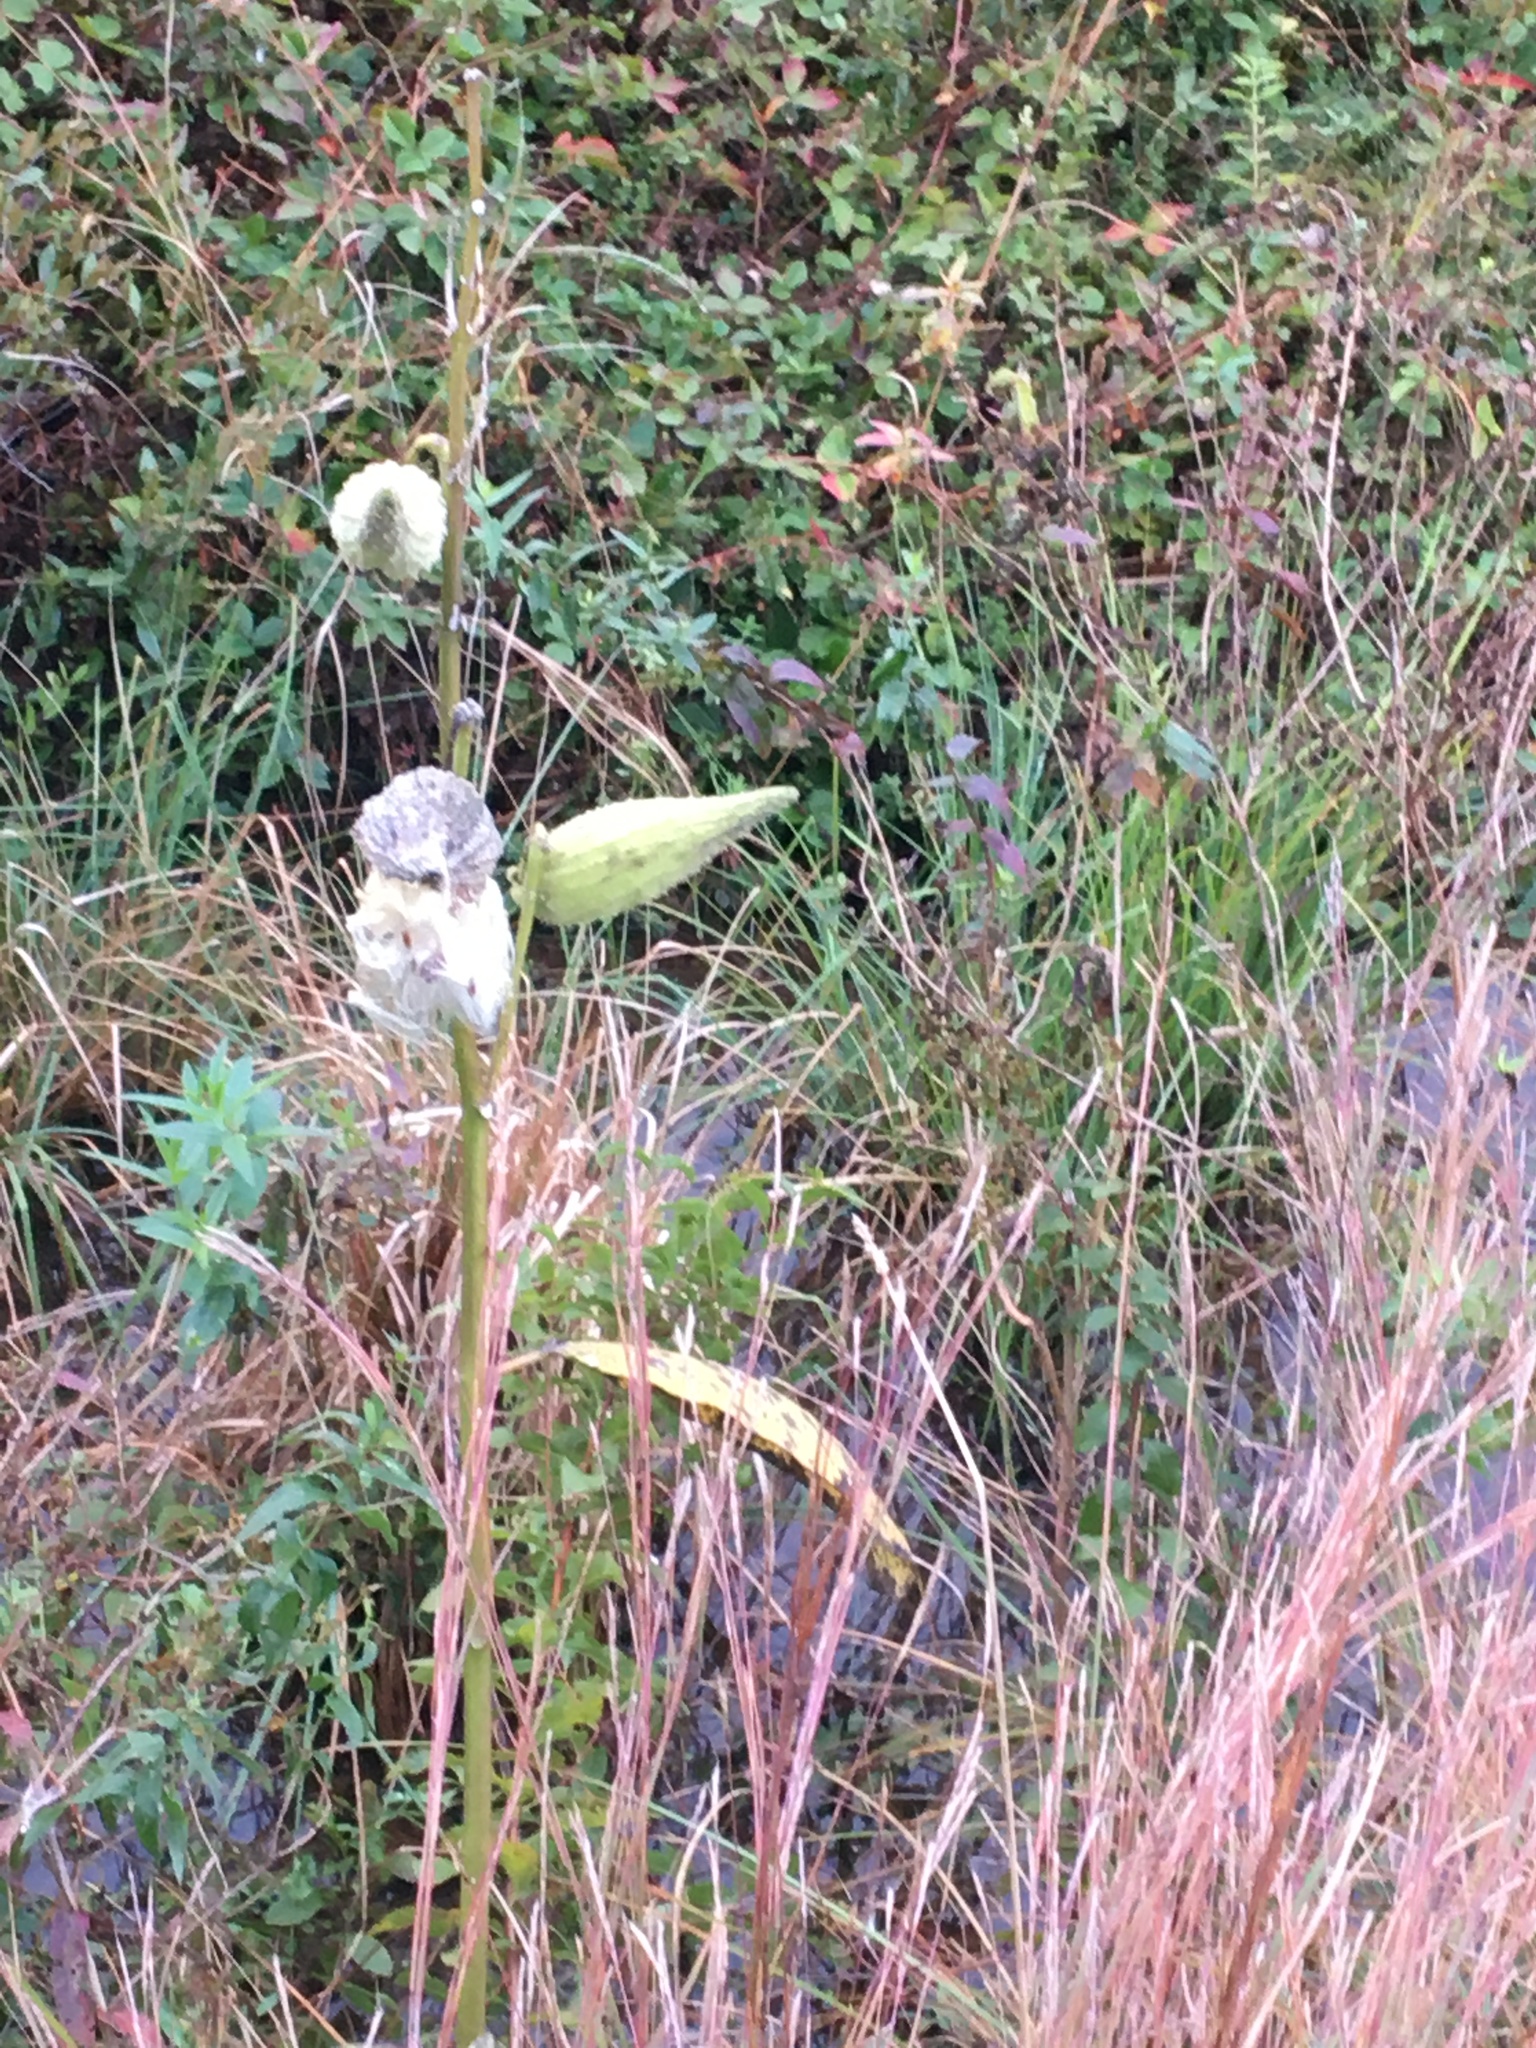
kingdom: Plantae
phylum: Tracheophyta
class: Magnoliopsida
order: Gentianales
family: Apocynaceae
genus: Asclepias
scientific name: Asclepias syriaca
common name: Common milkweed
